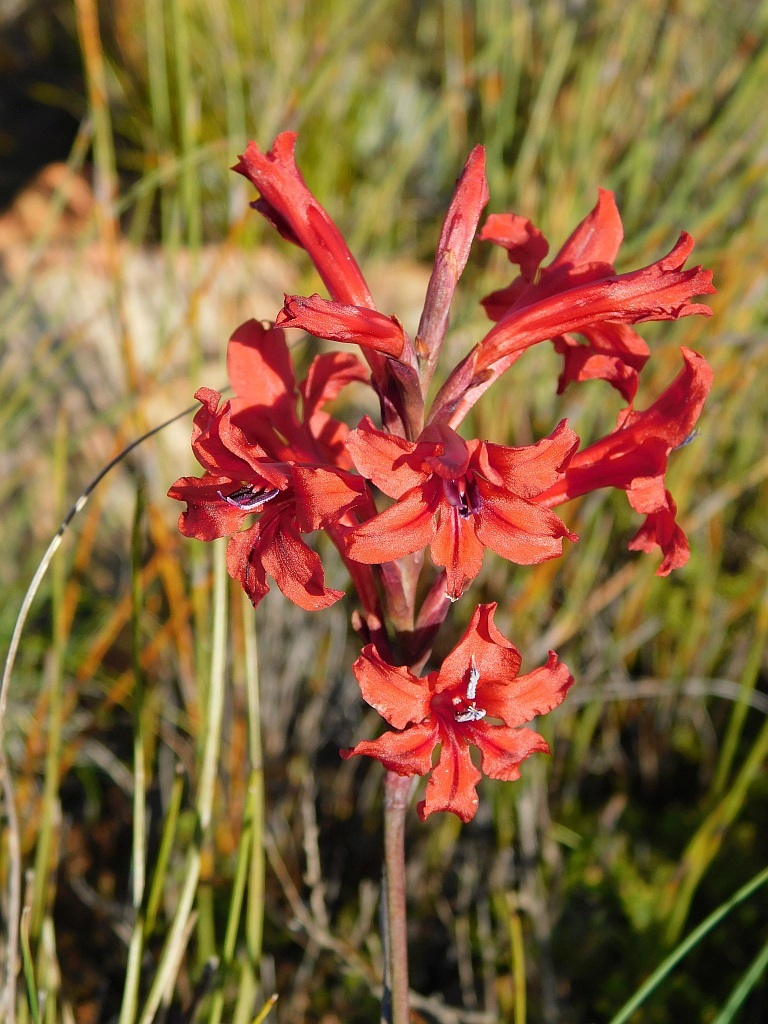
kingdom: Plantae
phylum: Tracheophyta
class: Liliopsida
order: Asparagales
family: Iridaceae
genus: Tritoniopsis
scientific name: Tritoniopsis pulchra
